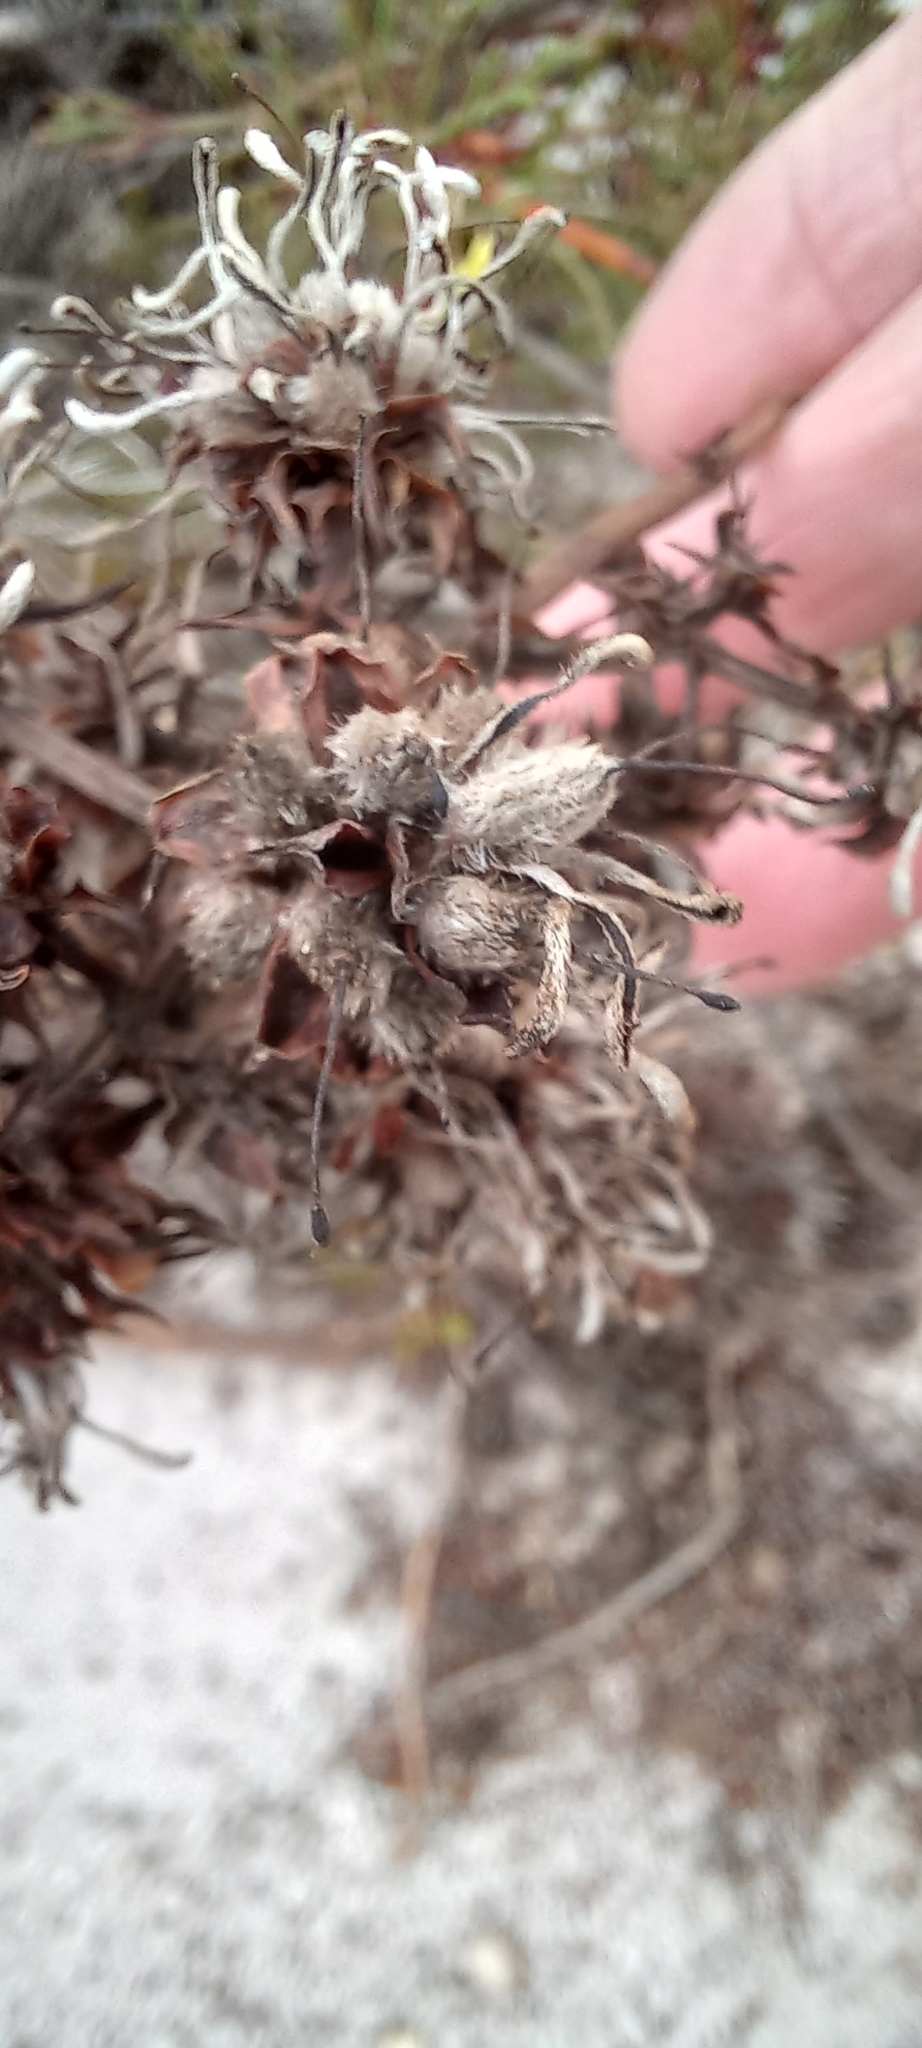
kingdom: Plantae
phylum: Tracheophyta
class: Magnoliopsida
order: Proteales
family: Proteaceae
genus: Serruria
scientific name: Serruria elongata
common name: Long-stalk spiderhead
